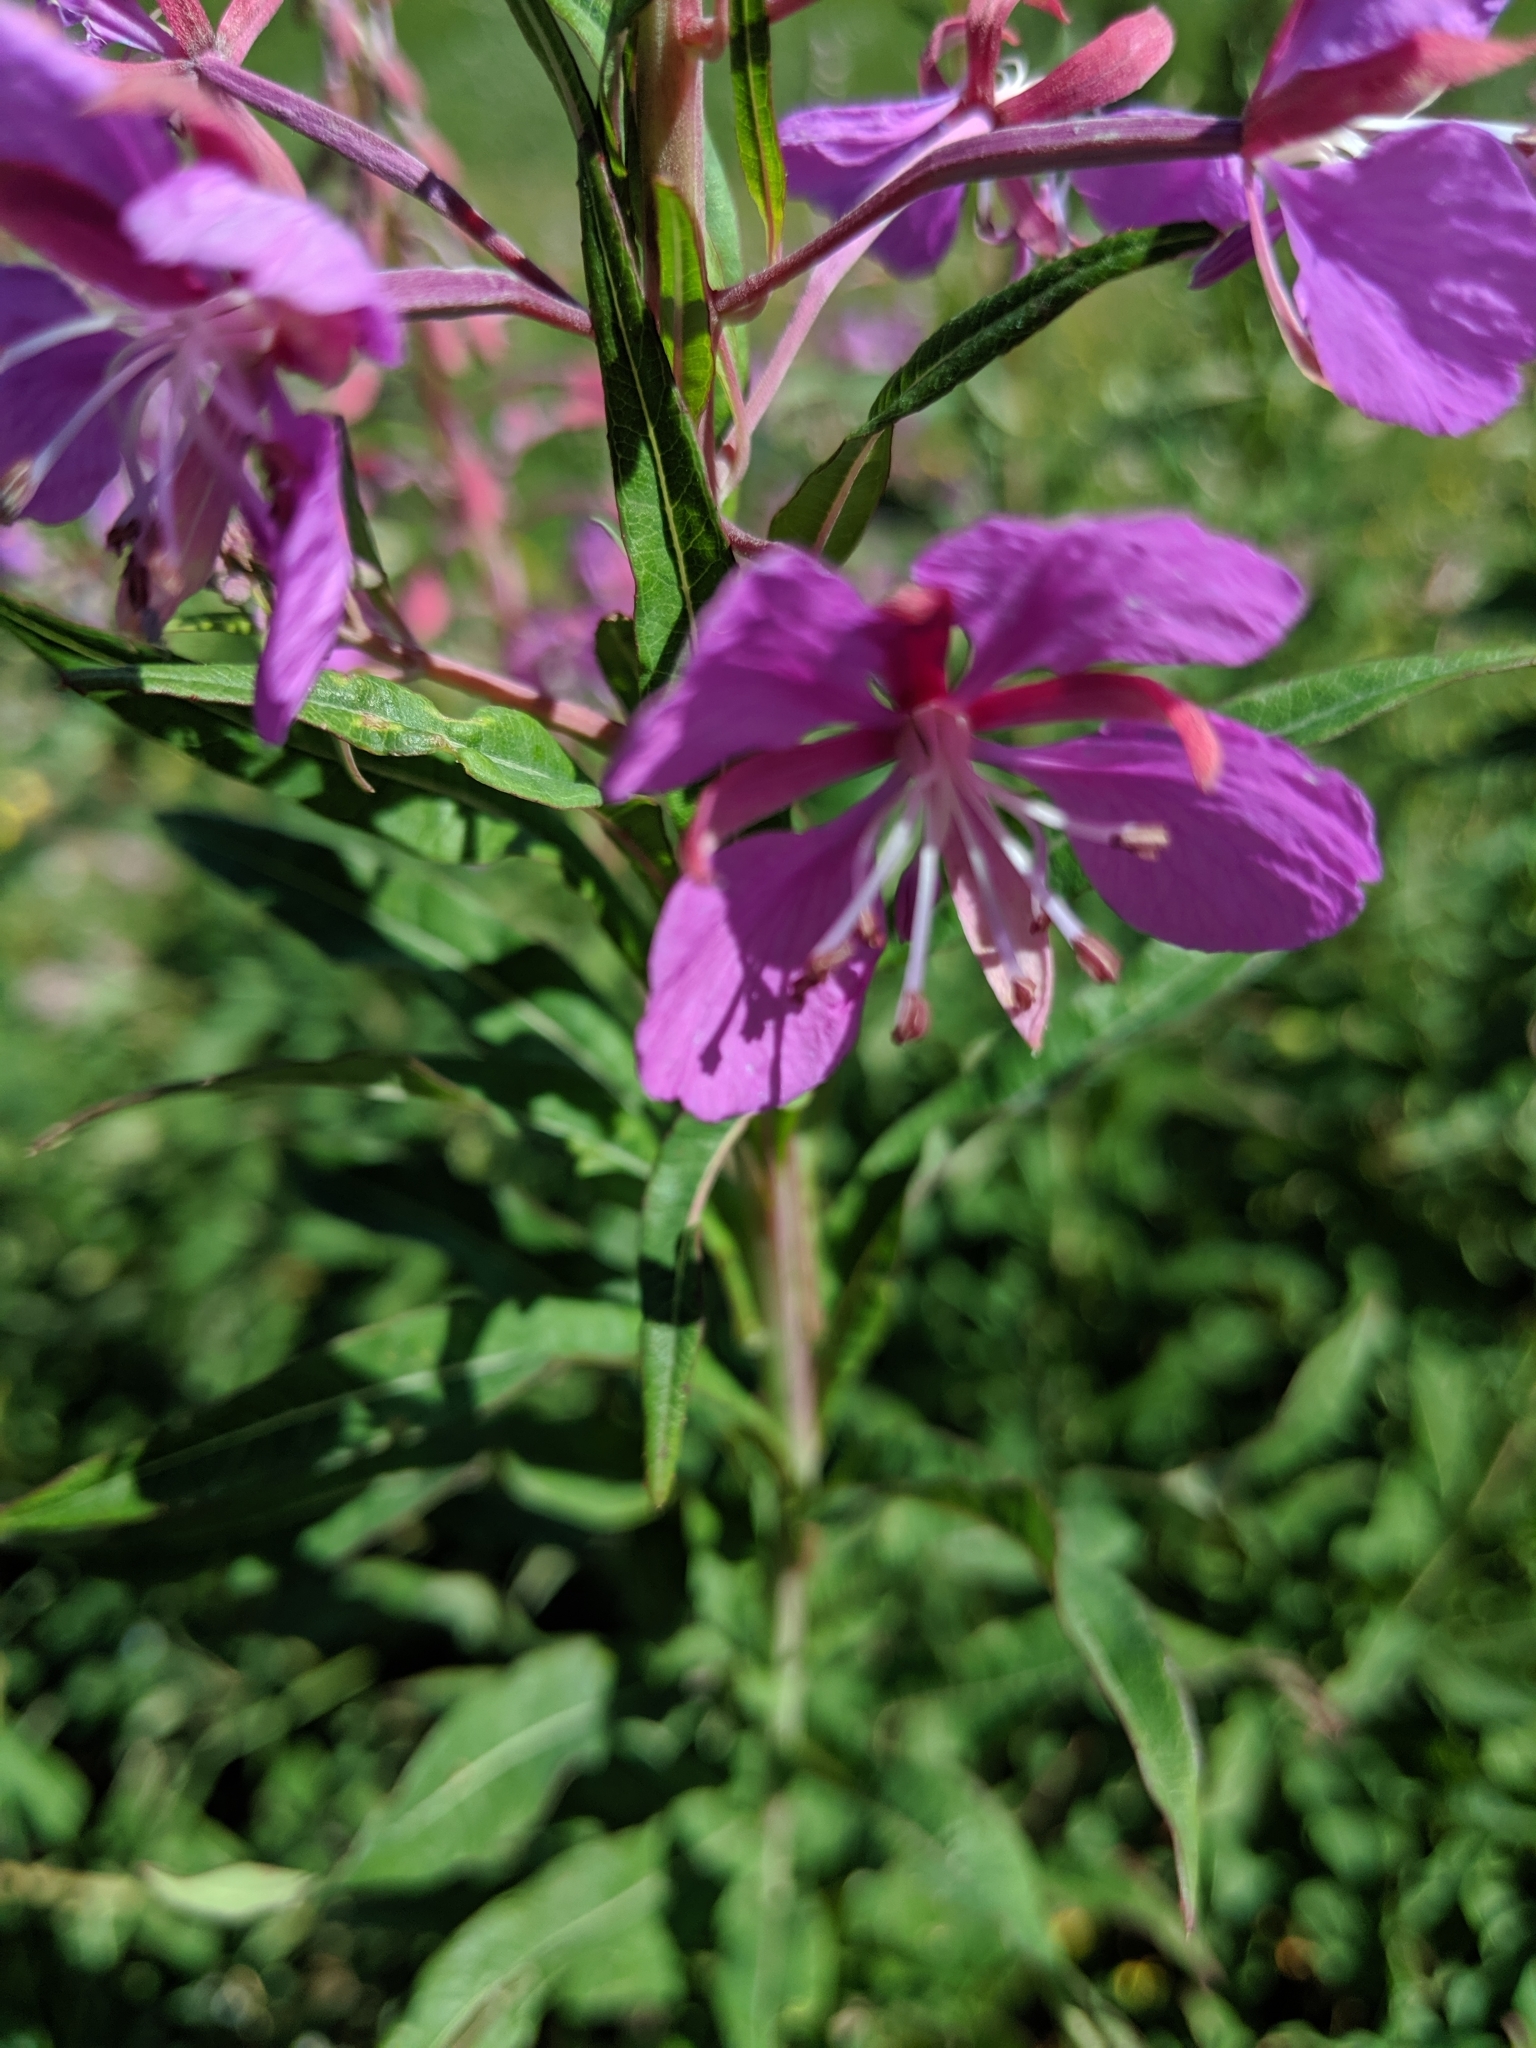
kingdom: Plantae
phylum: Tracheophyta
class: Magnoliopsida
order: Myrtales
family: Onagraceae
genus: Chamaenerion
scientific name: Chamaenerion angustifolium
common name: Fireweed
